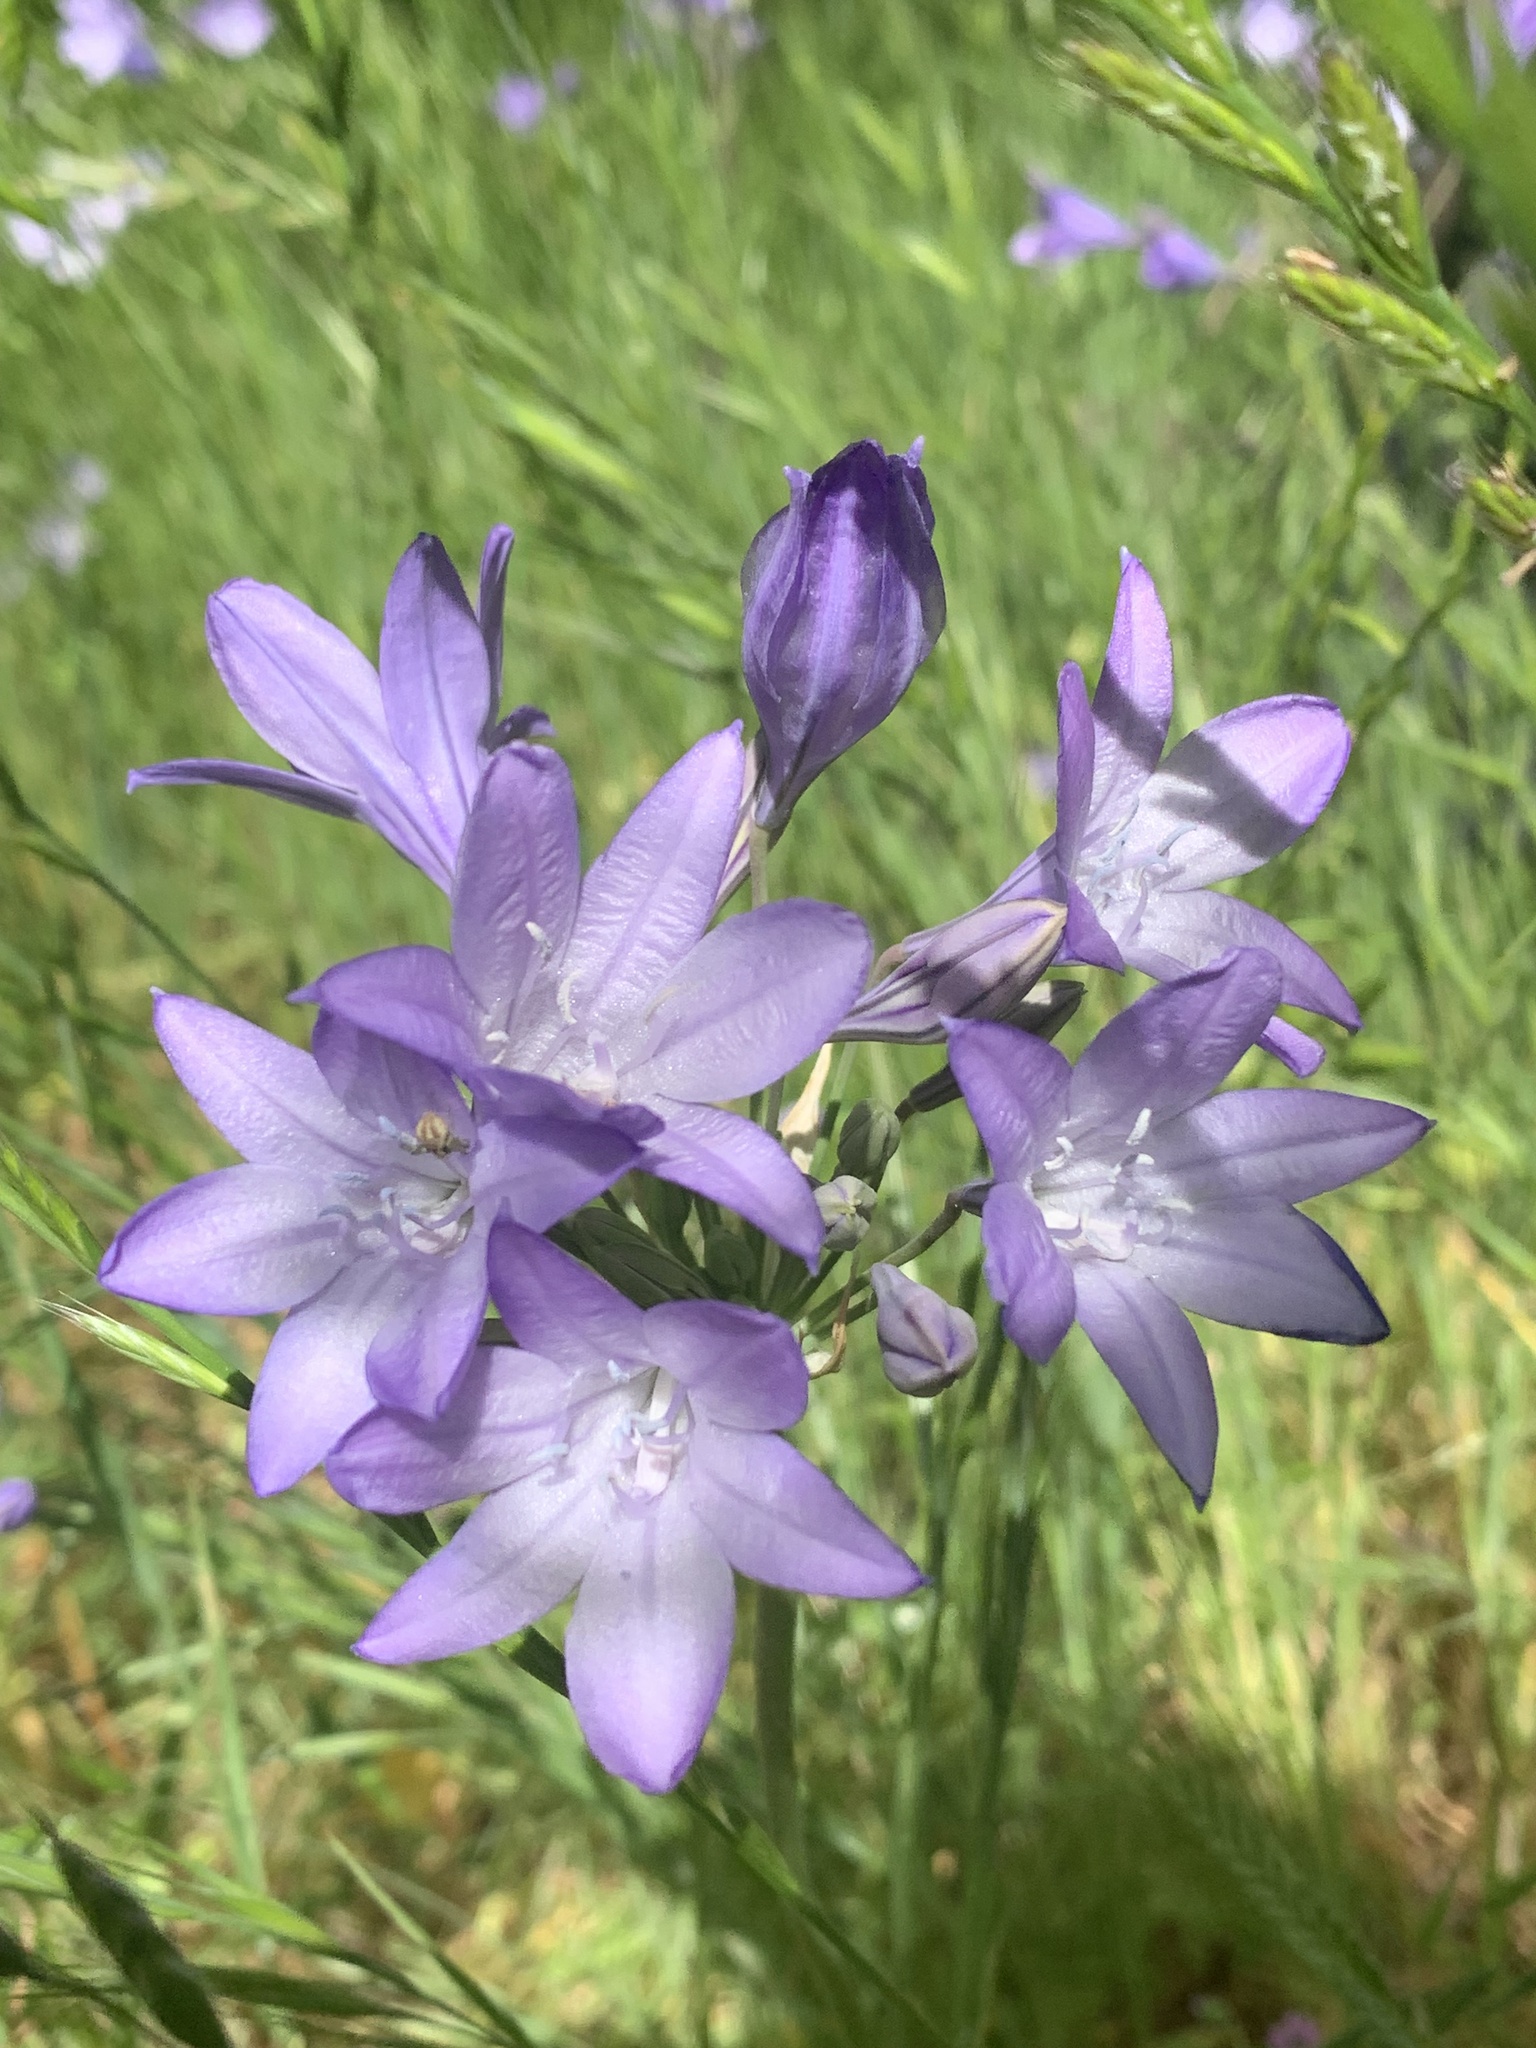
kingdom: Plantae
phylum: Tracheophyta
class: Liliopsida
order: Asparagales
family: Asparagaceae
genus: Triteleia
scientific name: Triteleia laxa
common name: Triplet-lily
